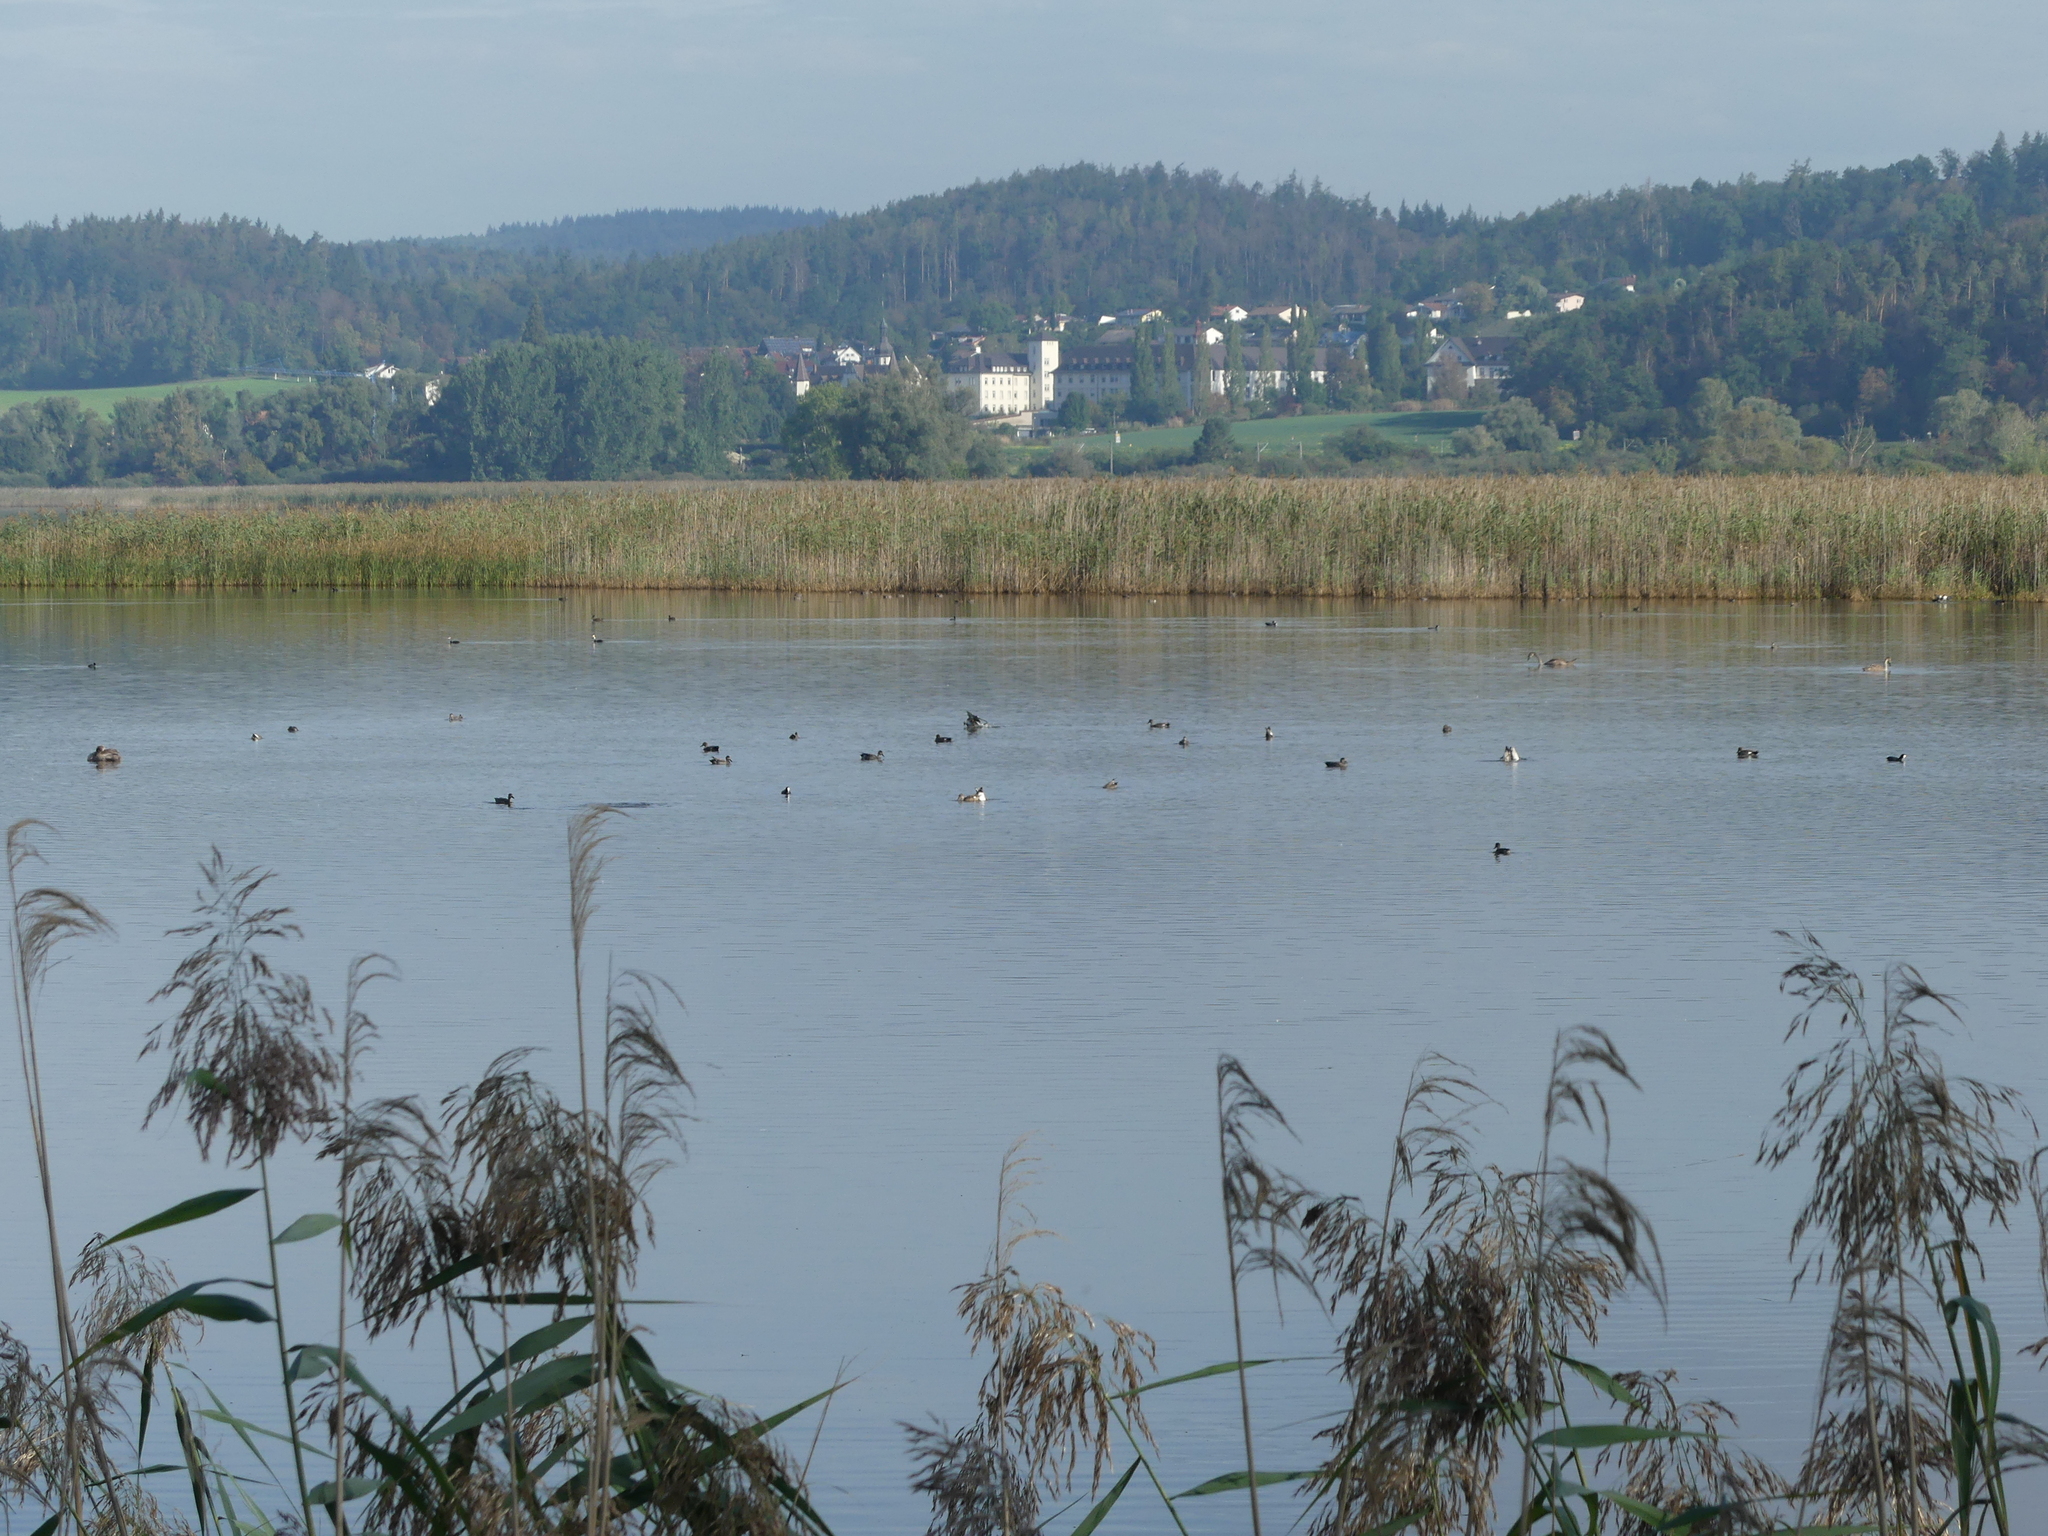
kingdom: Animalia
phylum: Chordata
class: Aves
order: Anseriformes
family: Anatidae
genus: Mareca
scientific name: Mareca strepera
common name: Gadwall
